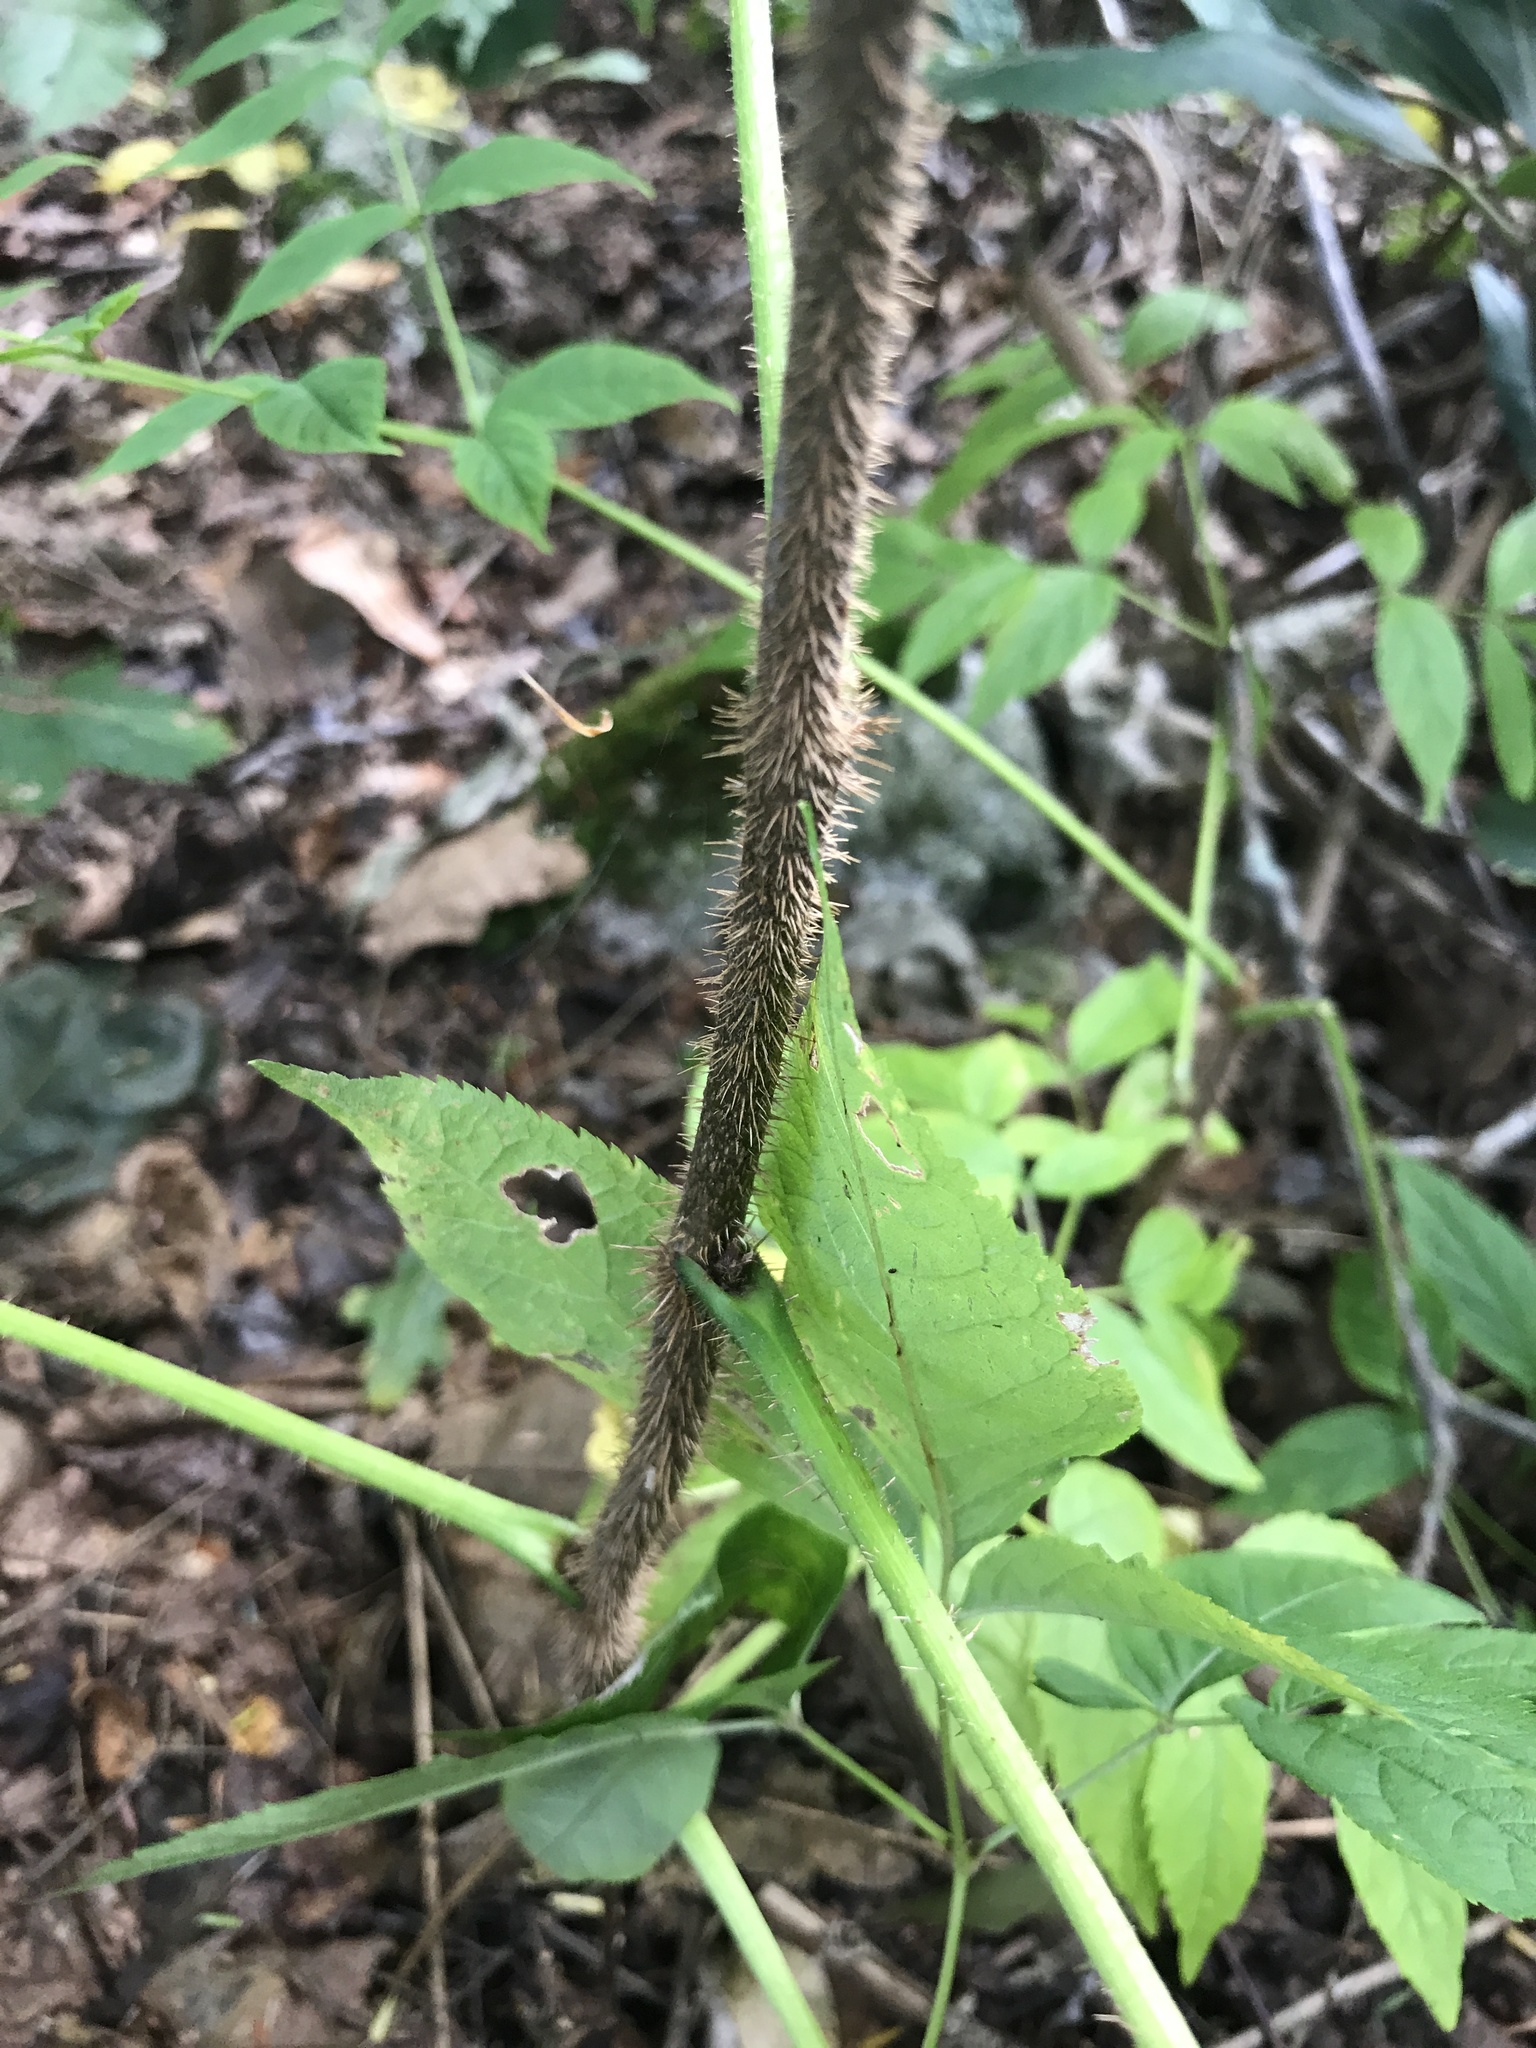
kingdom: Plantae
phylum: Tracheophyta
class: Magnoliopsida
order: Apiales
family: Araliaceae
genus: Aralia
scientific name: Aralia hispida
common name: Bristly sarsaparilla
